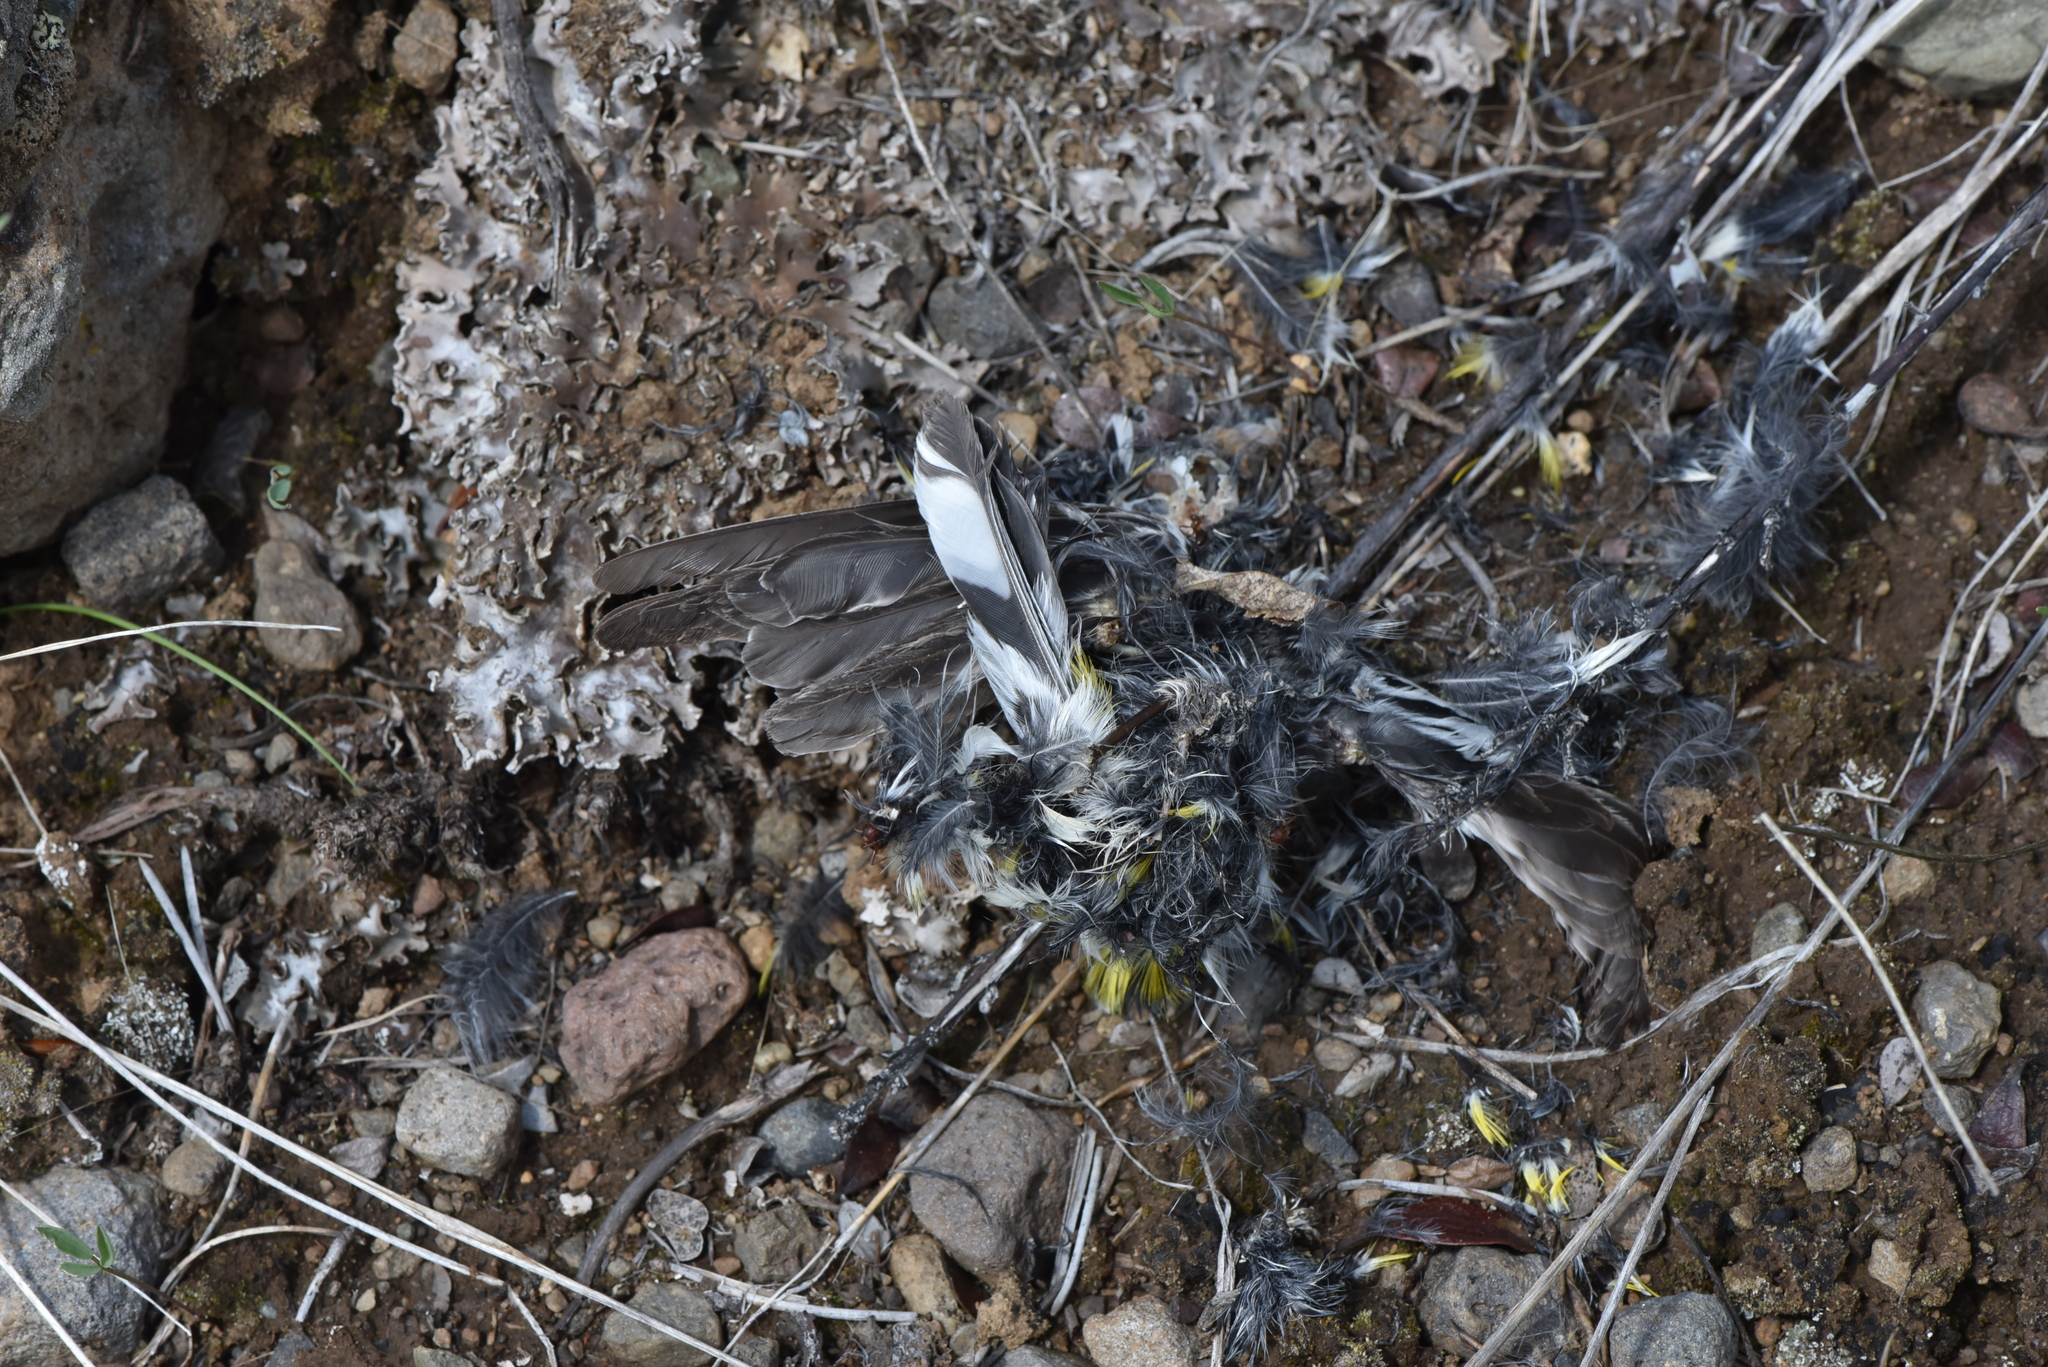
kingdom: Animalia
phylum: Chordata
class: Aves
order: Passeriformes
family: Parulidae
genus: Setophaga
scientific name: Setophaga coronata
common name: Myrtle warbler
